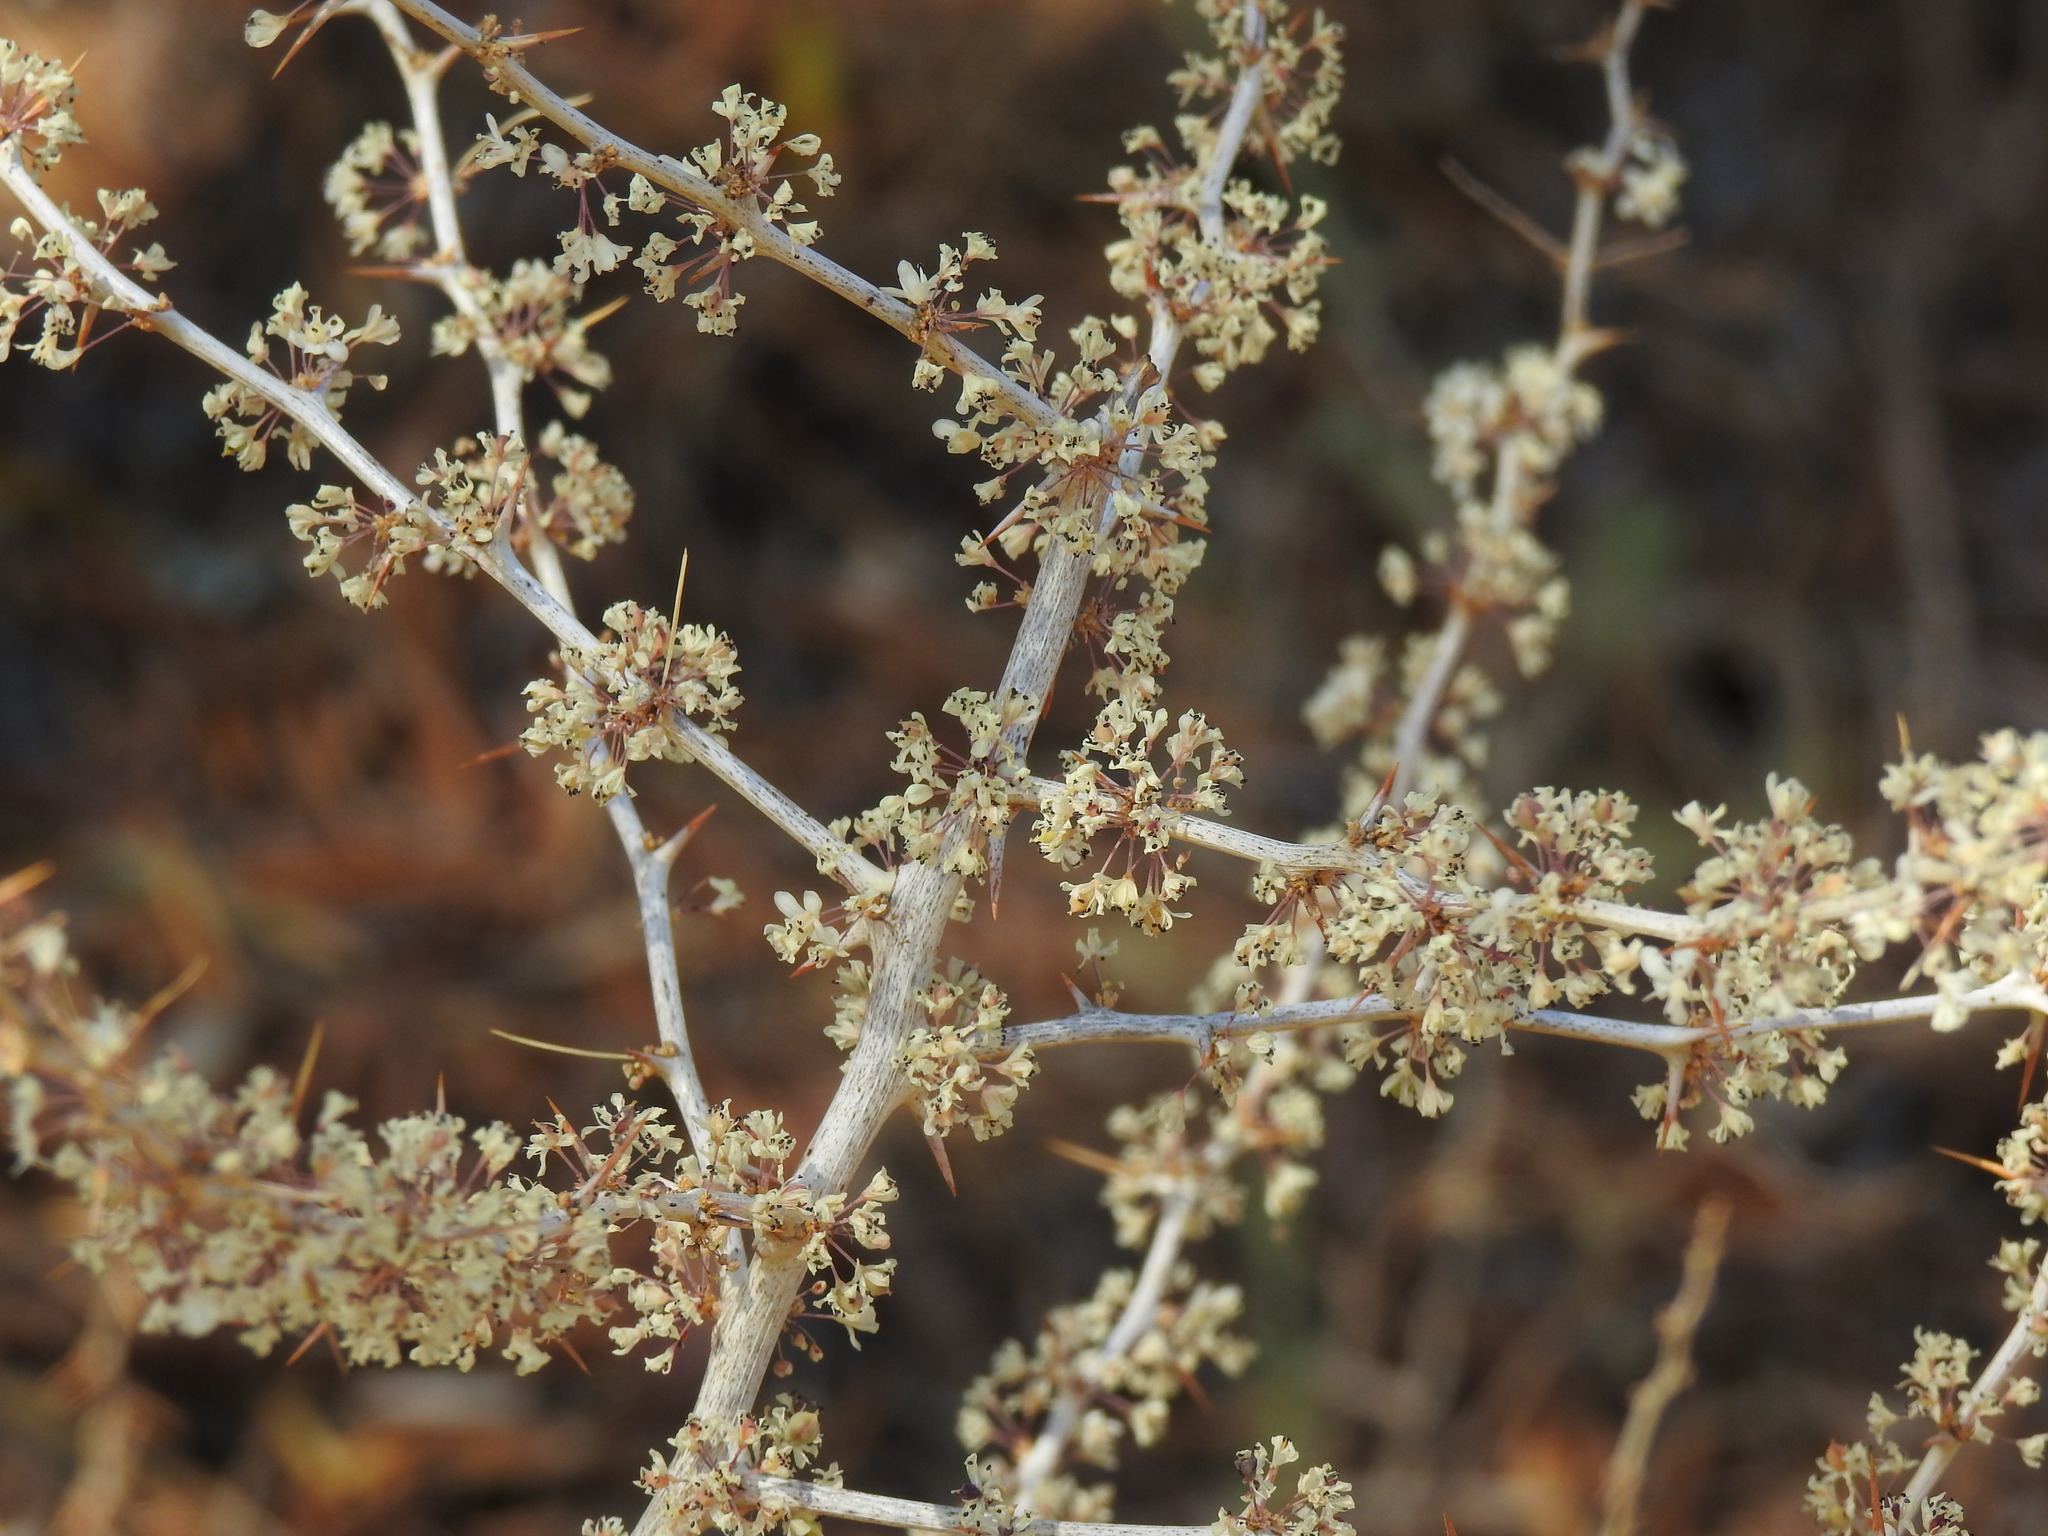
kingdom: Plantae
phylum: Tracheophyta
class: Liliopsida
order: Asparagales
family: Asparagaceae
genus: Asparagus
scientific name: Asparagus albus
